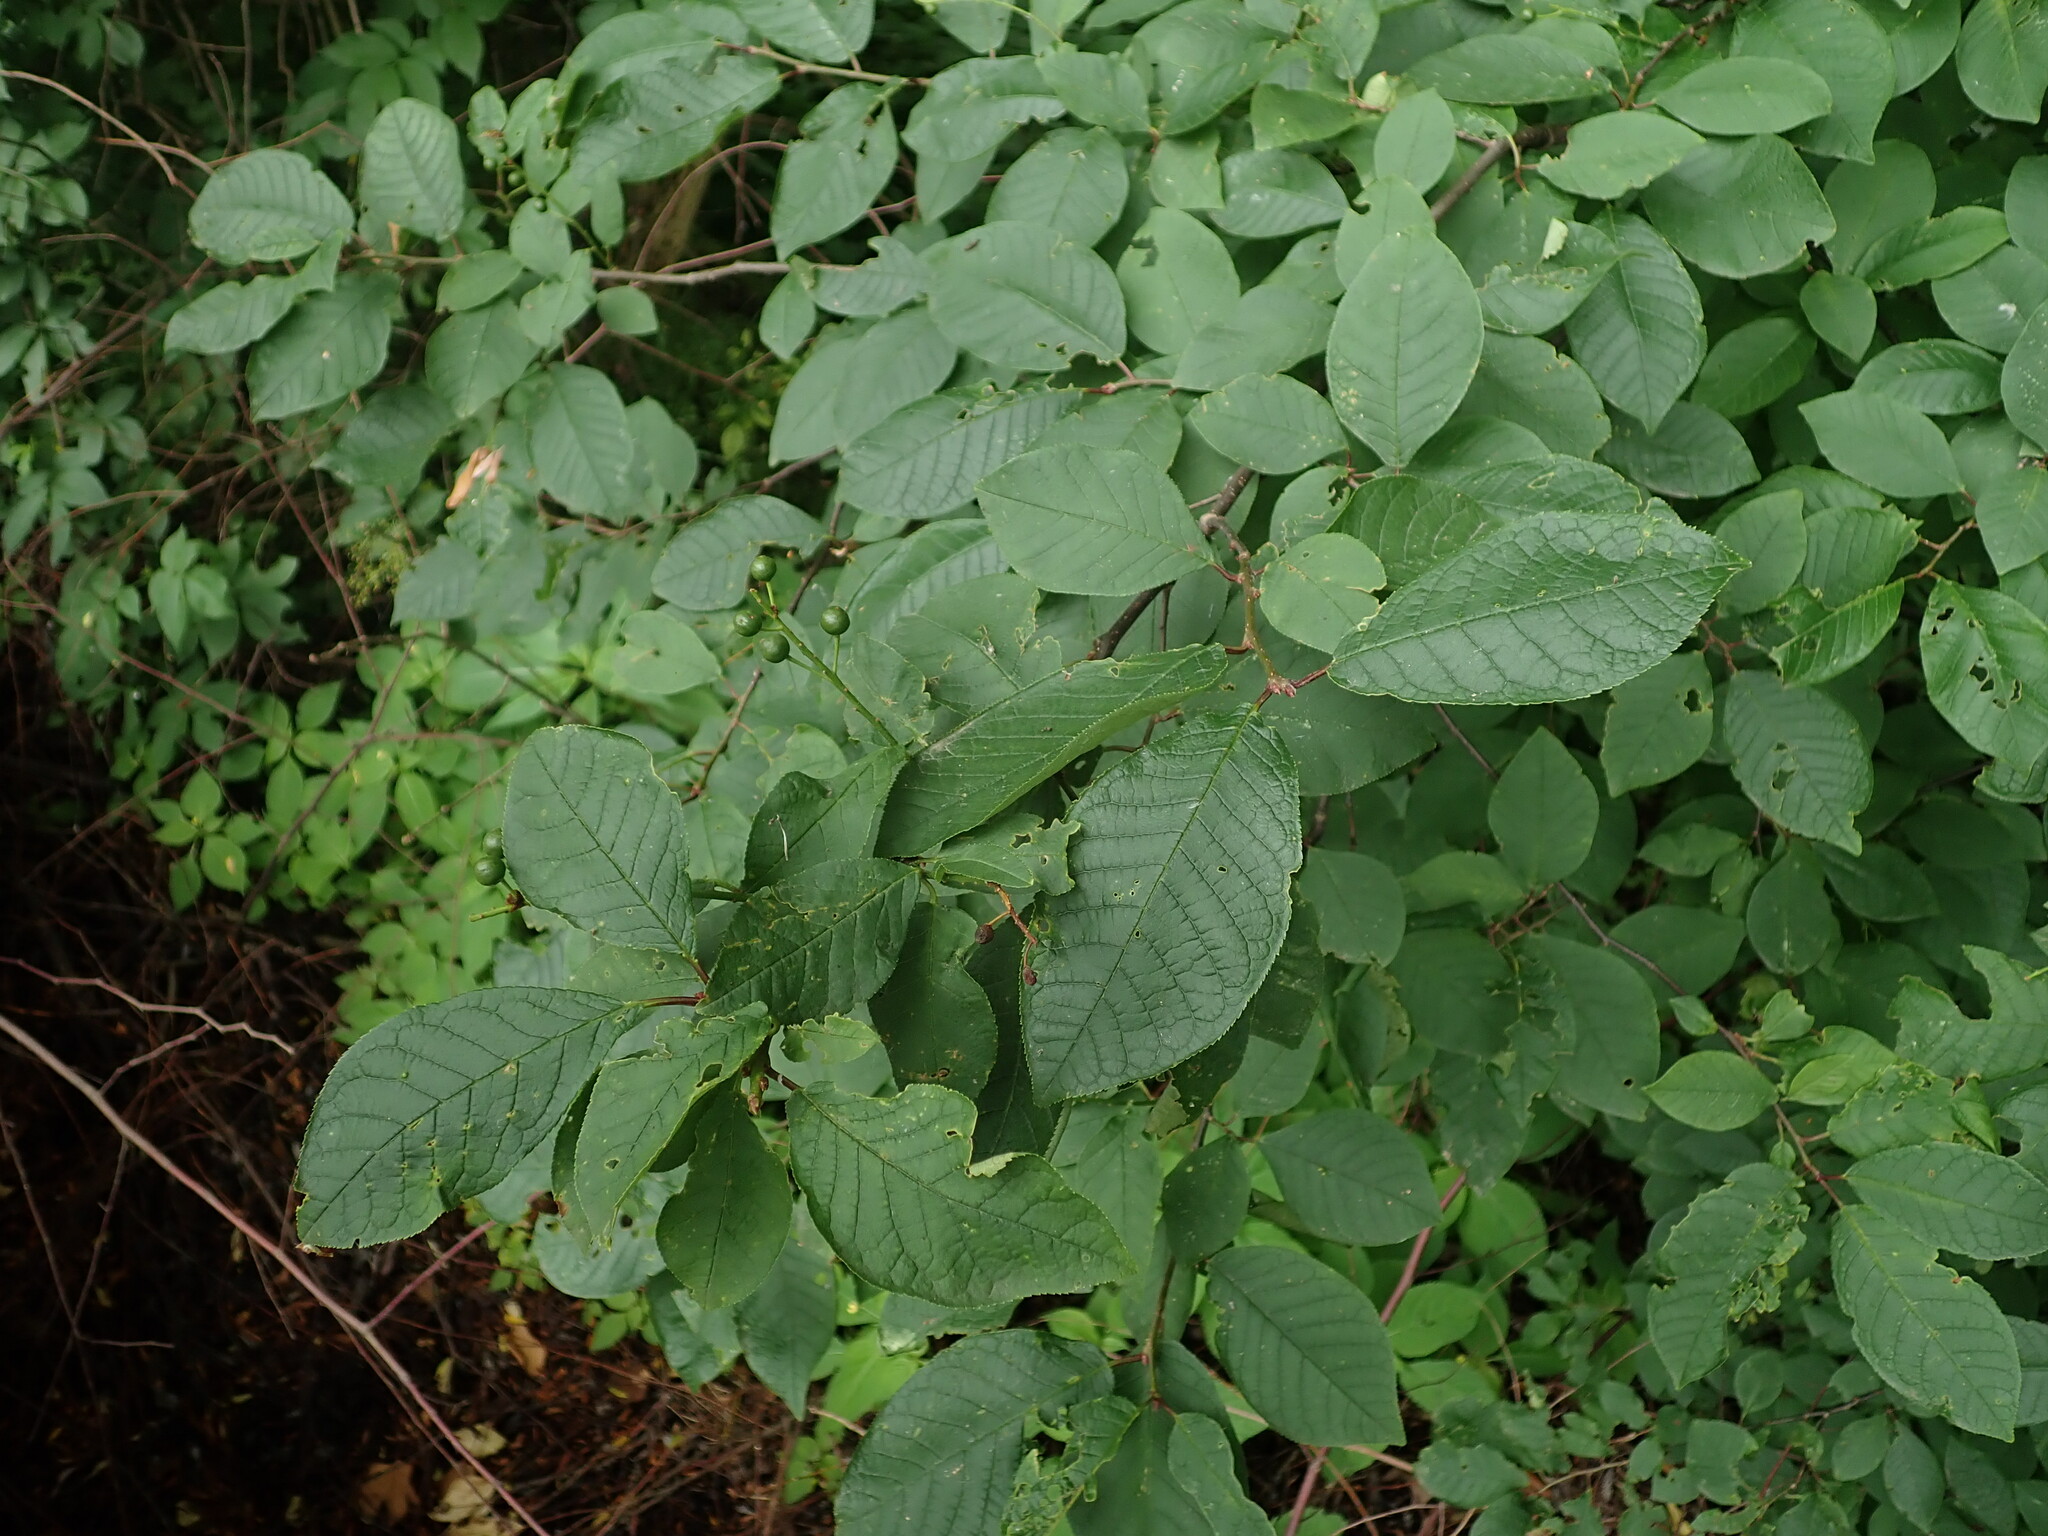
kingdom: Plantae
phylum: Tracheophyta
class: Magnoliopsida
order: Rosales
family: Rosaceae
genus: Prunus
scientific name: Prunus padus
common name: Bird cherry
